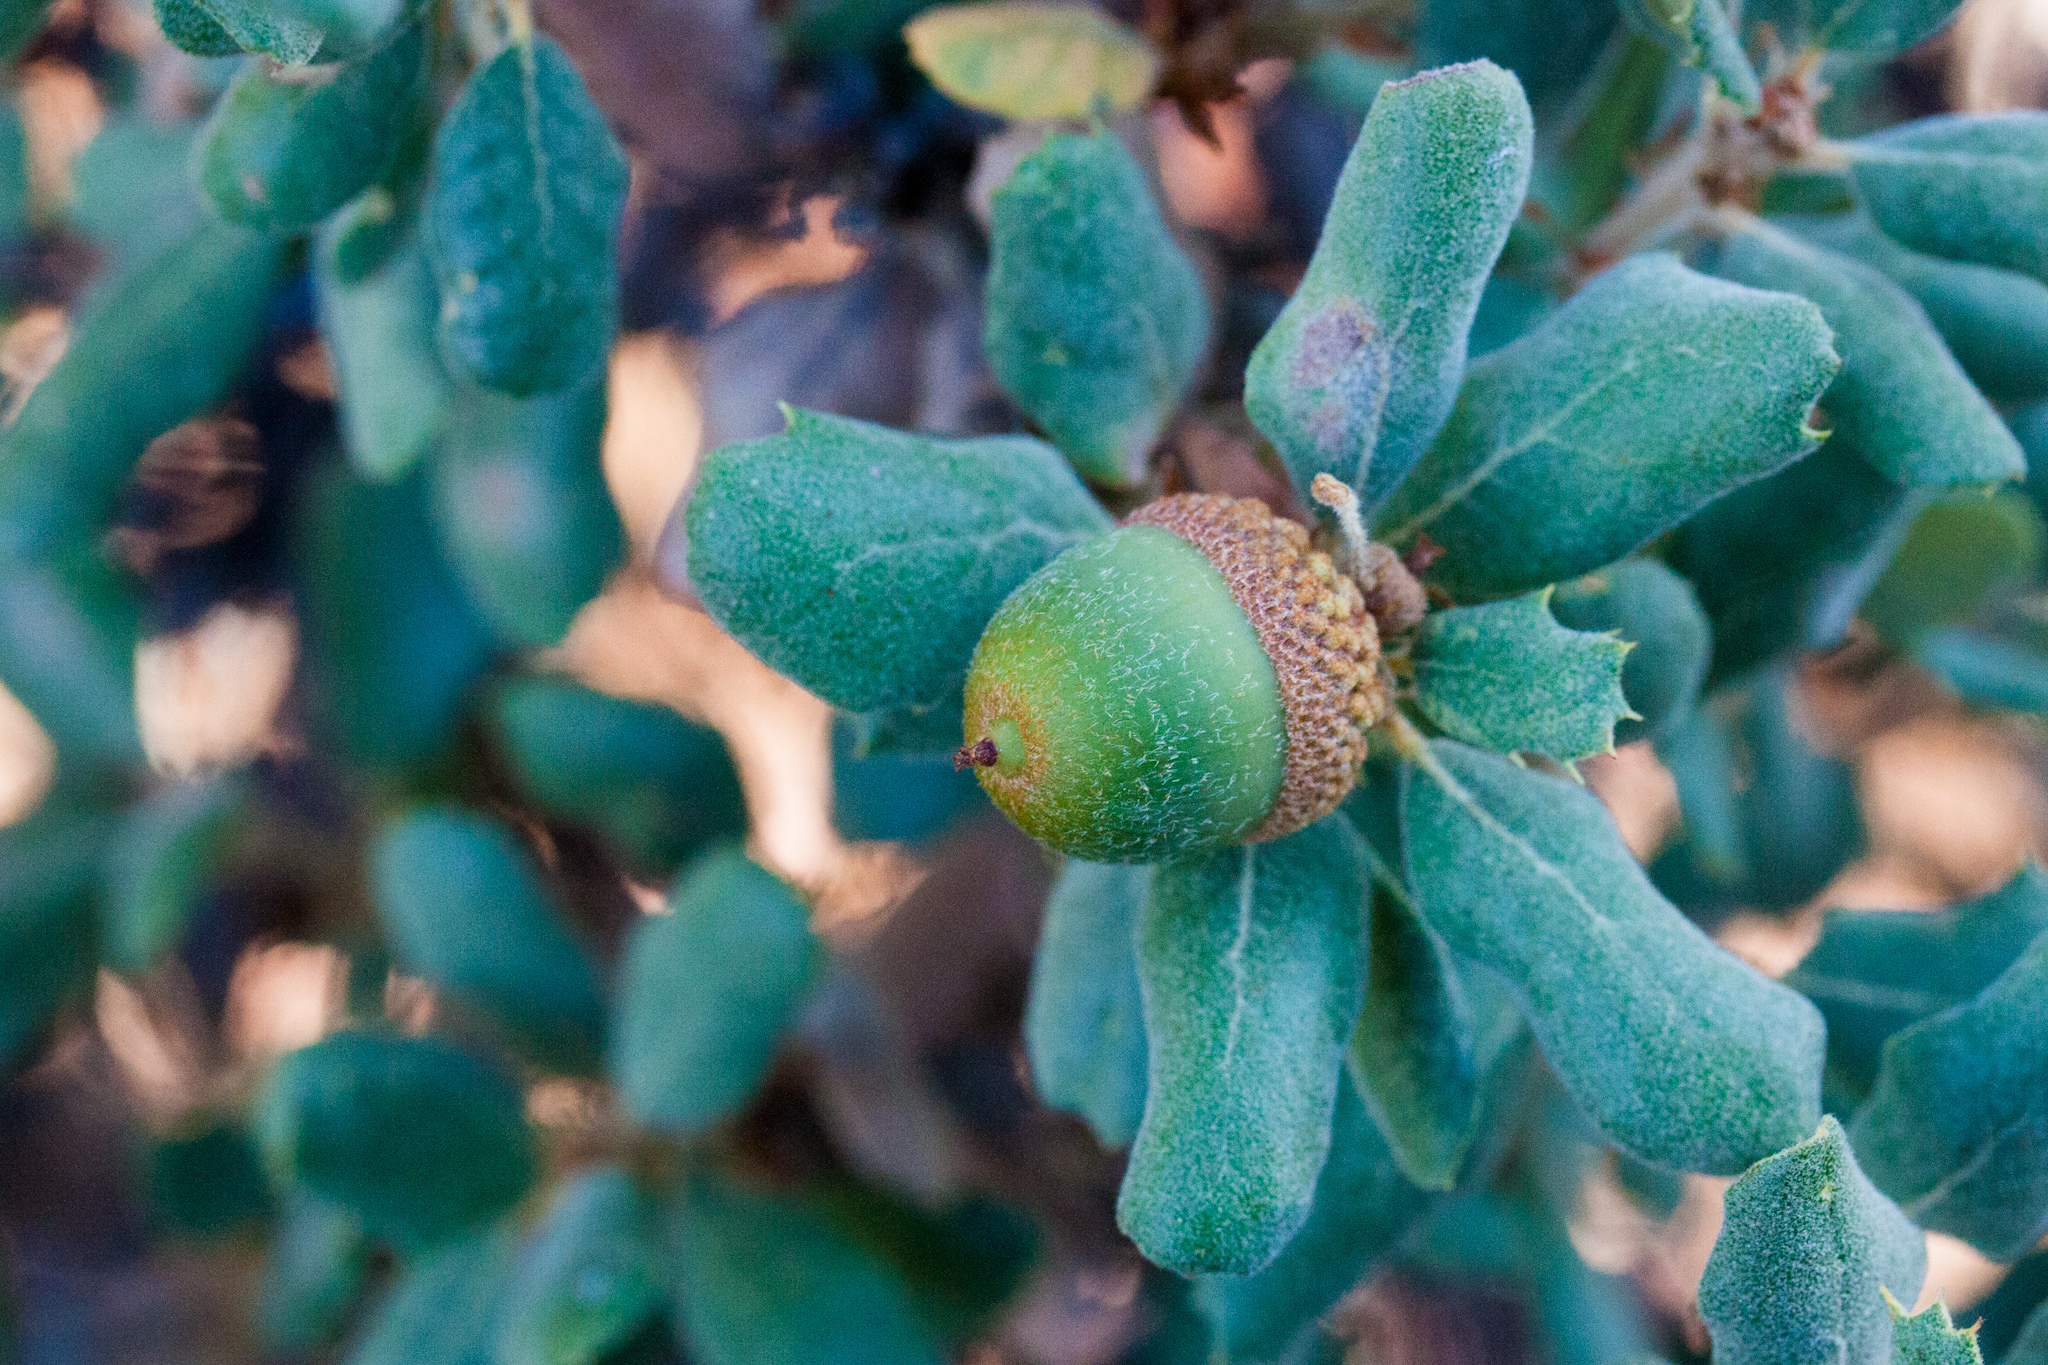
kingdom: Plantae
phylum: Tracheophyta
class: Magnoliopsida
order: Fagales
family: Fagaceae
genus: Quercus
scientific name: Quercus durata
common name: Leather oak
